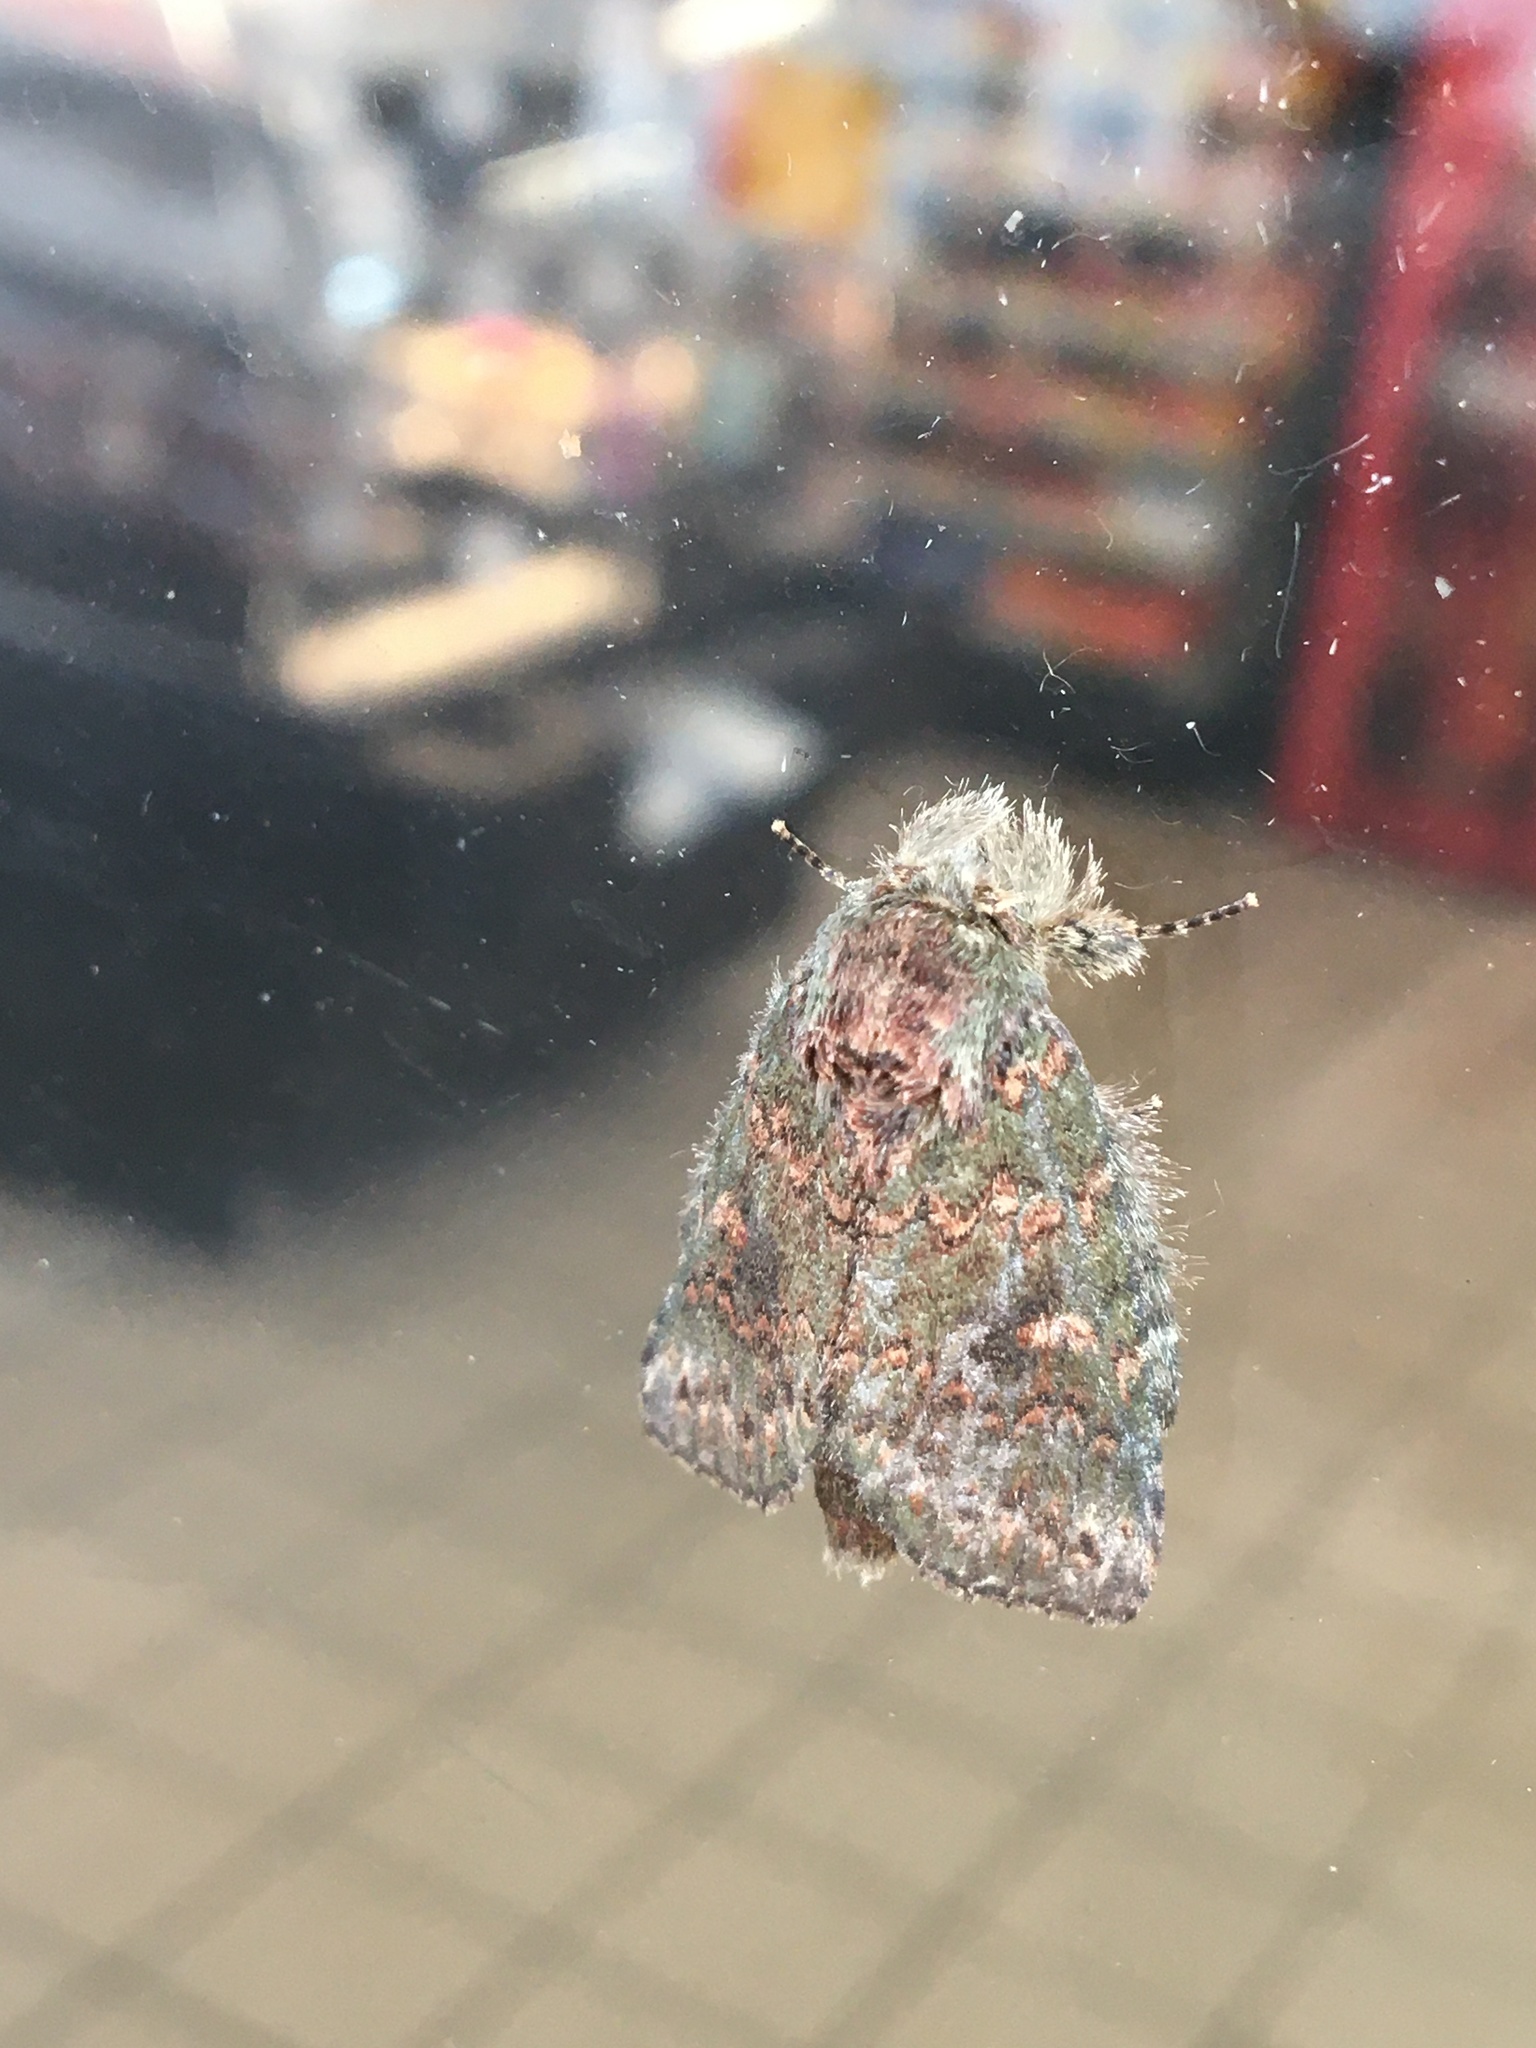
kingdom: Animalia
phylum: Arthropoda
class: Insecta
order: Lepidoptera
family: Notodontidae
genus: Disphragis
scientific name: Disphragis Cecrita biundata
